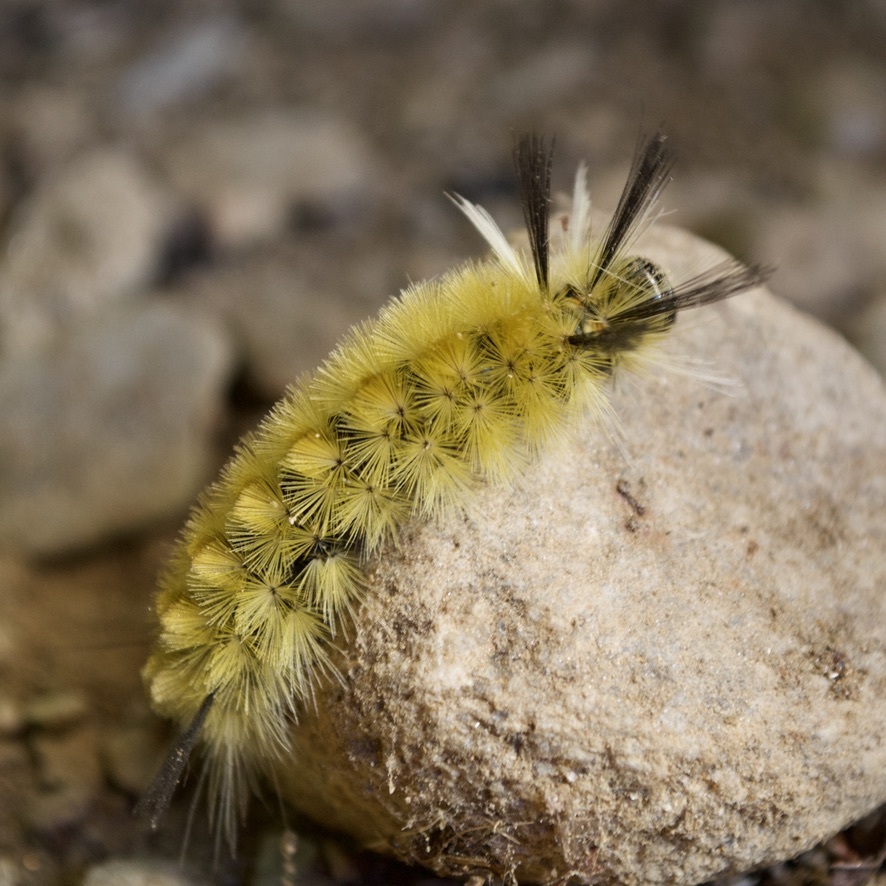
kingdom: Animalia
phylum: Arthropoda
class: Insecta
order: Lepidoptera
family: Erebidae
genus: Halysidota
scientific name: Halysidota tessellaris
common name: Banded tussock moth
